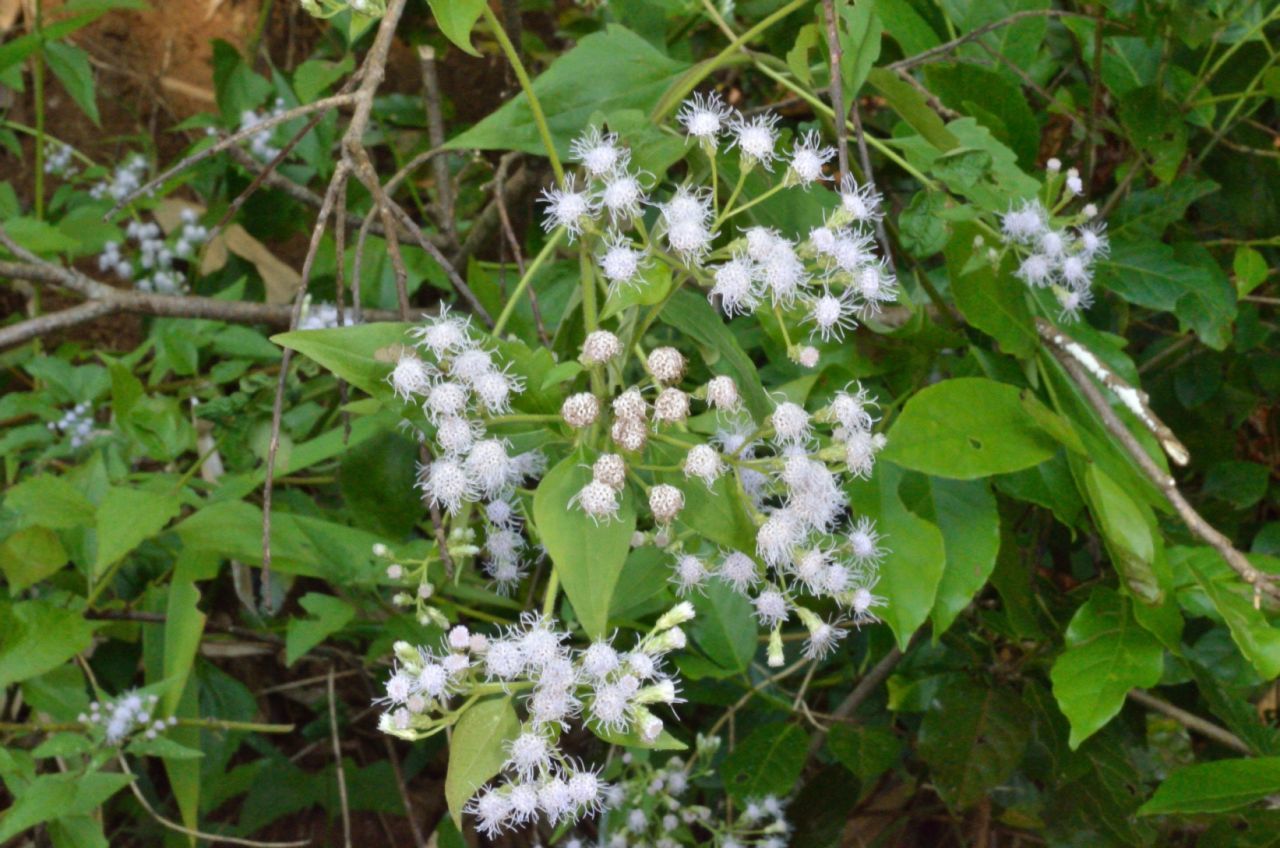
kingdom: Plantae
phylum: Tracheophyta
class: Magnoliopsida
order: Asterales
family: Asteraceae
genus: Chromolaena
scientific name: Chromolaena odorata
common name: Siamweed
